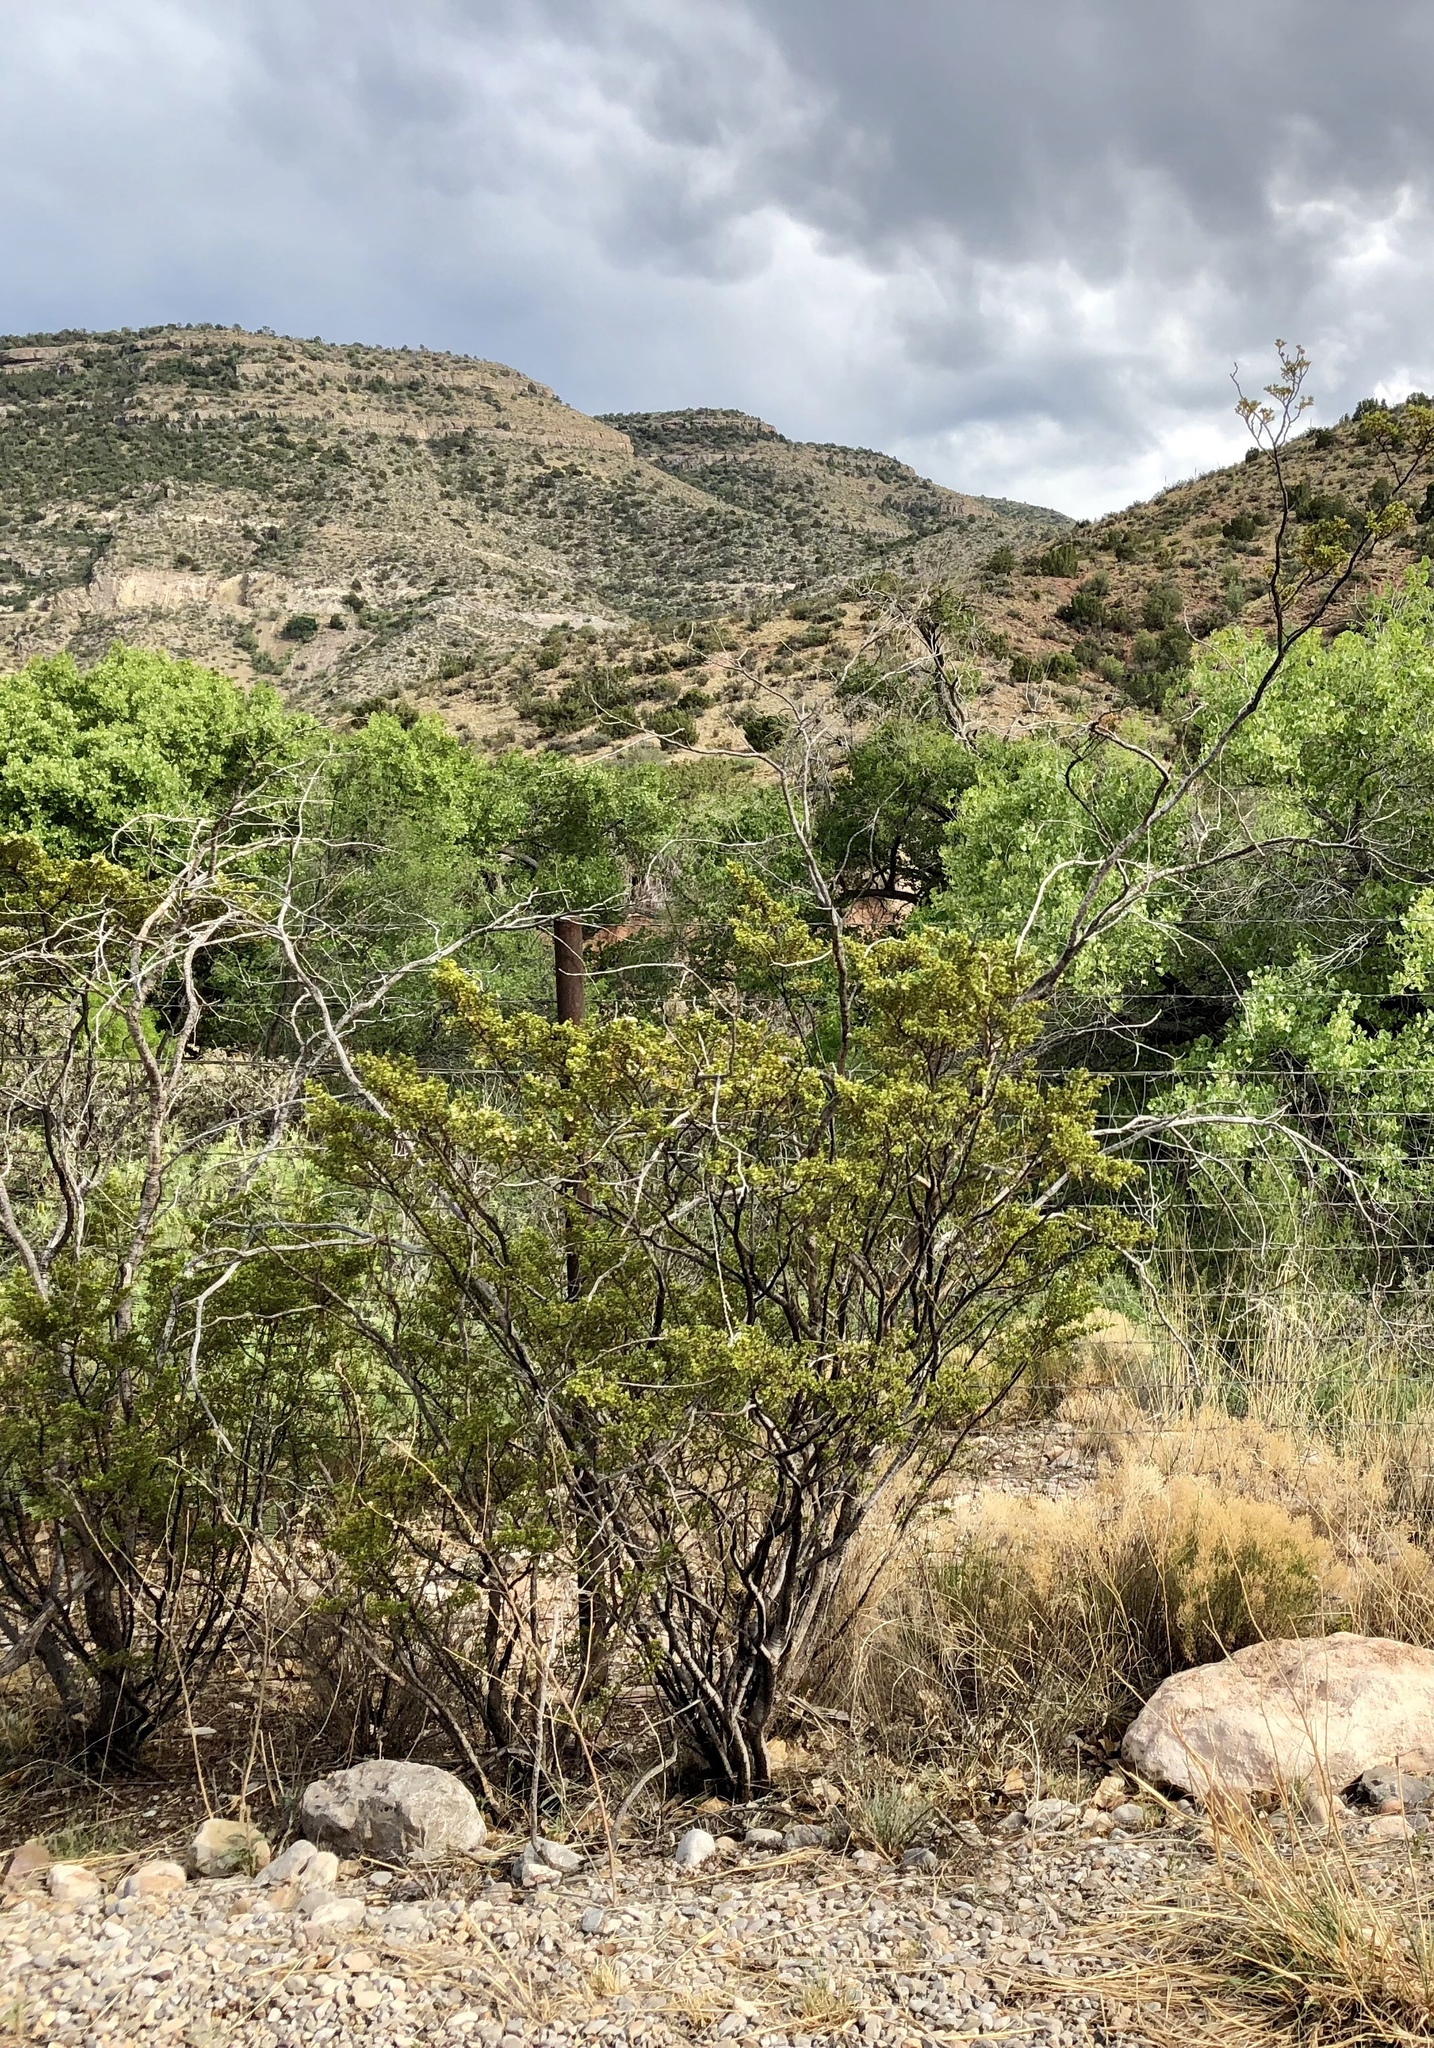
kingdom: Plantae
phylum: Tracheophyta
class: Magnoliopsida
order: Zygophyllales
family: Zygophyllaceae
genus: Larrea
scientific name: Larrea tridentata
